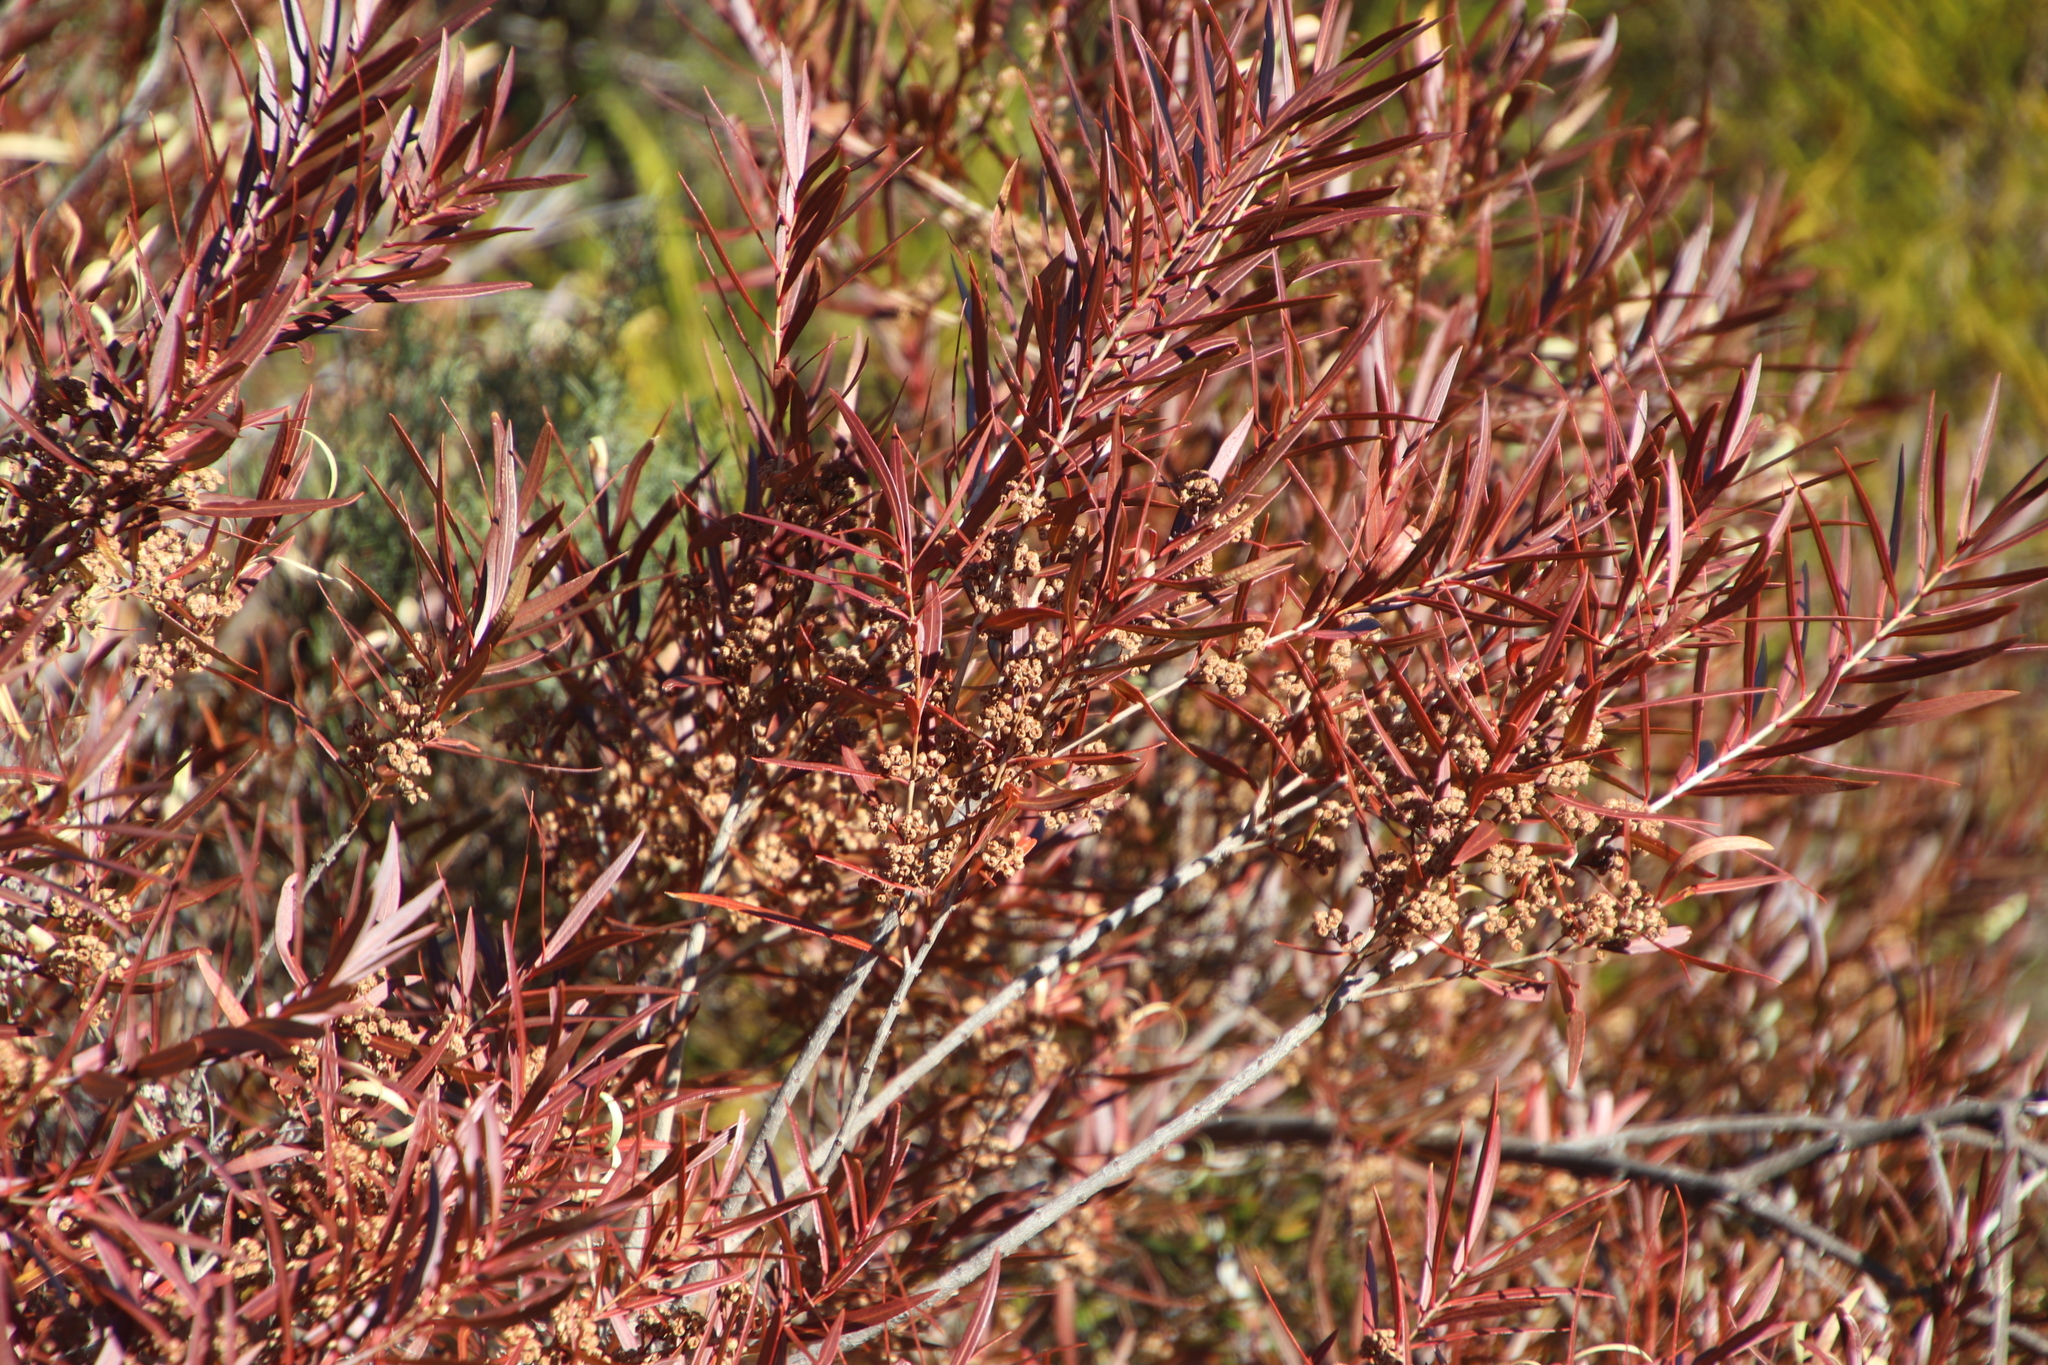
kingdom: Plantae
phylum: Tracheophyta
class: Magnoliopsida
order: Myrtales
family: Myrtaceae
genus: Callistemon
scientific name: Callistemon lanceolatus
